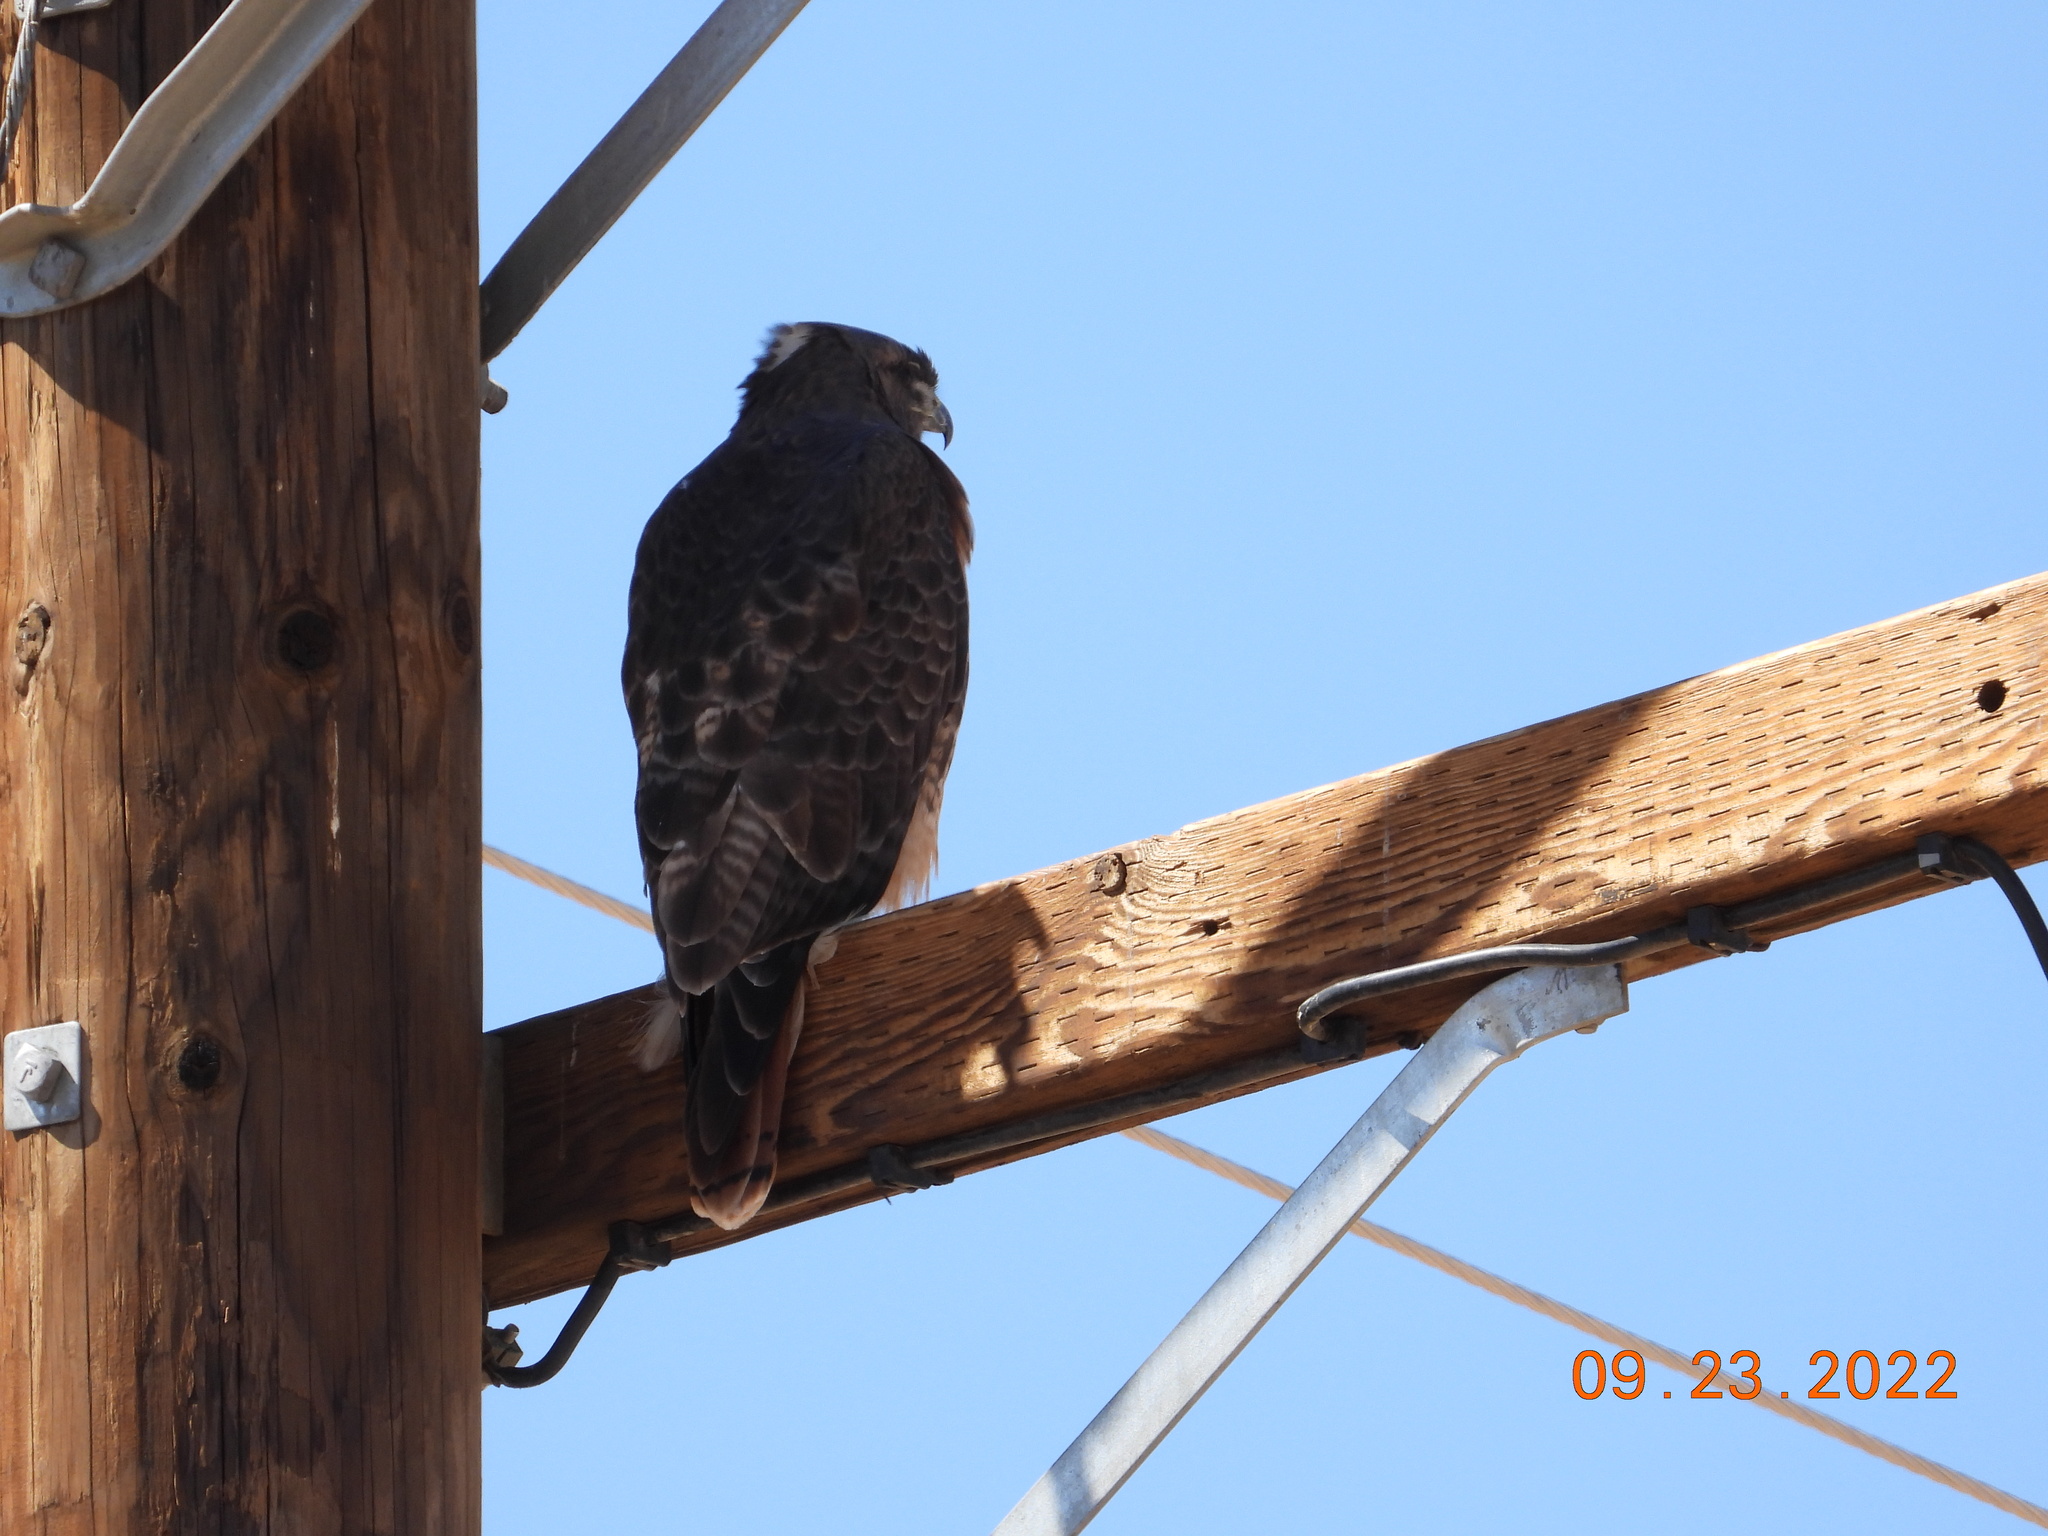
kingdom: Animalia
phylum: Chordata
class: Aves
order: Accipitriformes
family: Accipitridae
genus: Buteo
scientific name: Buteo jamaicensis
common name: Red-tailed hawk
